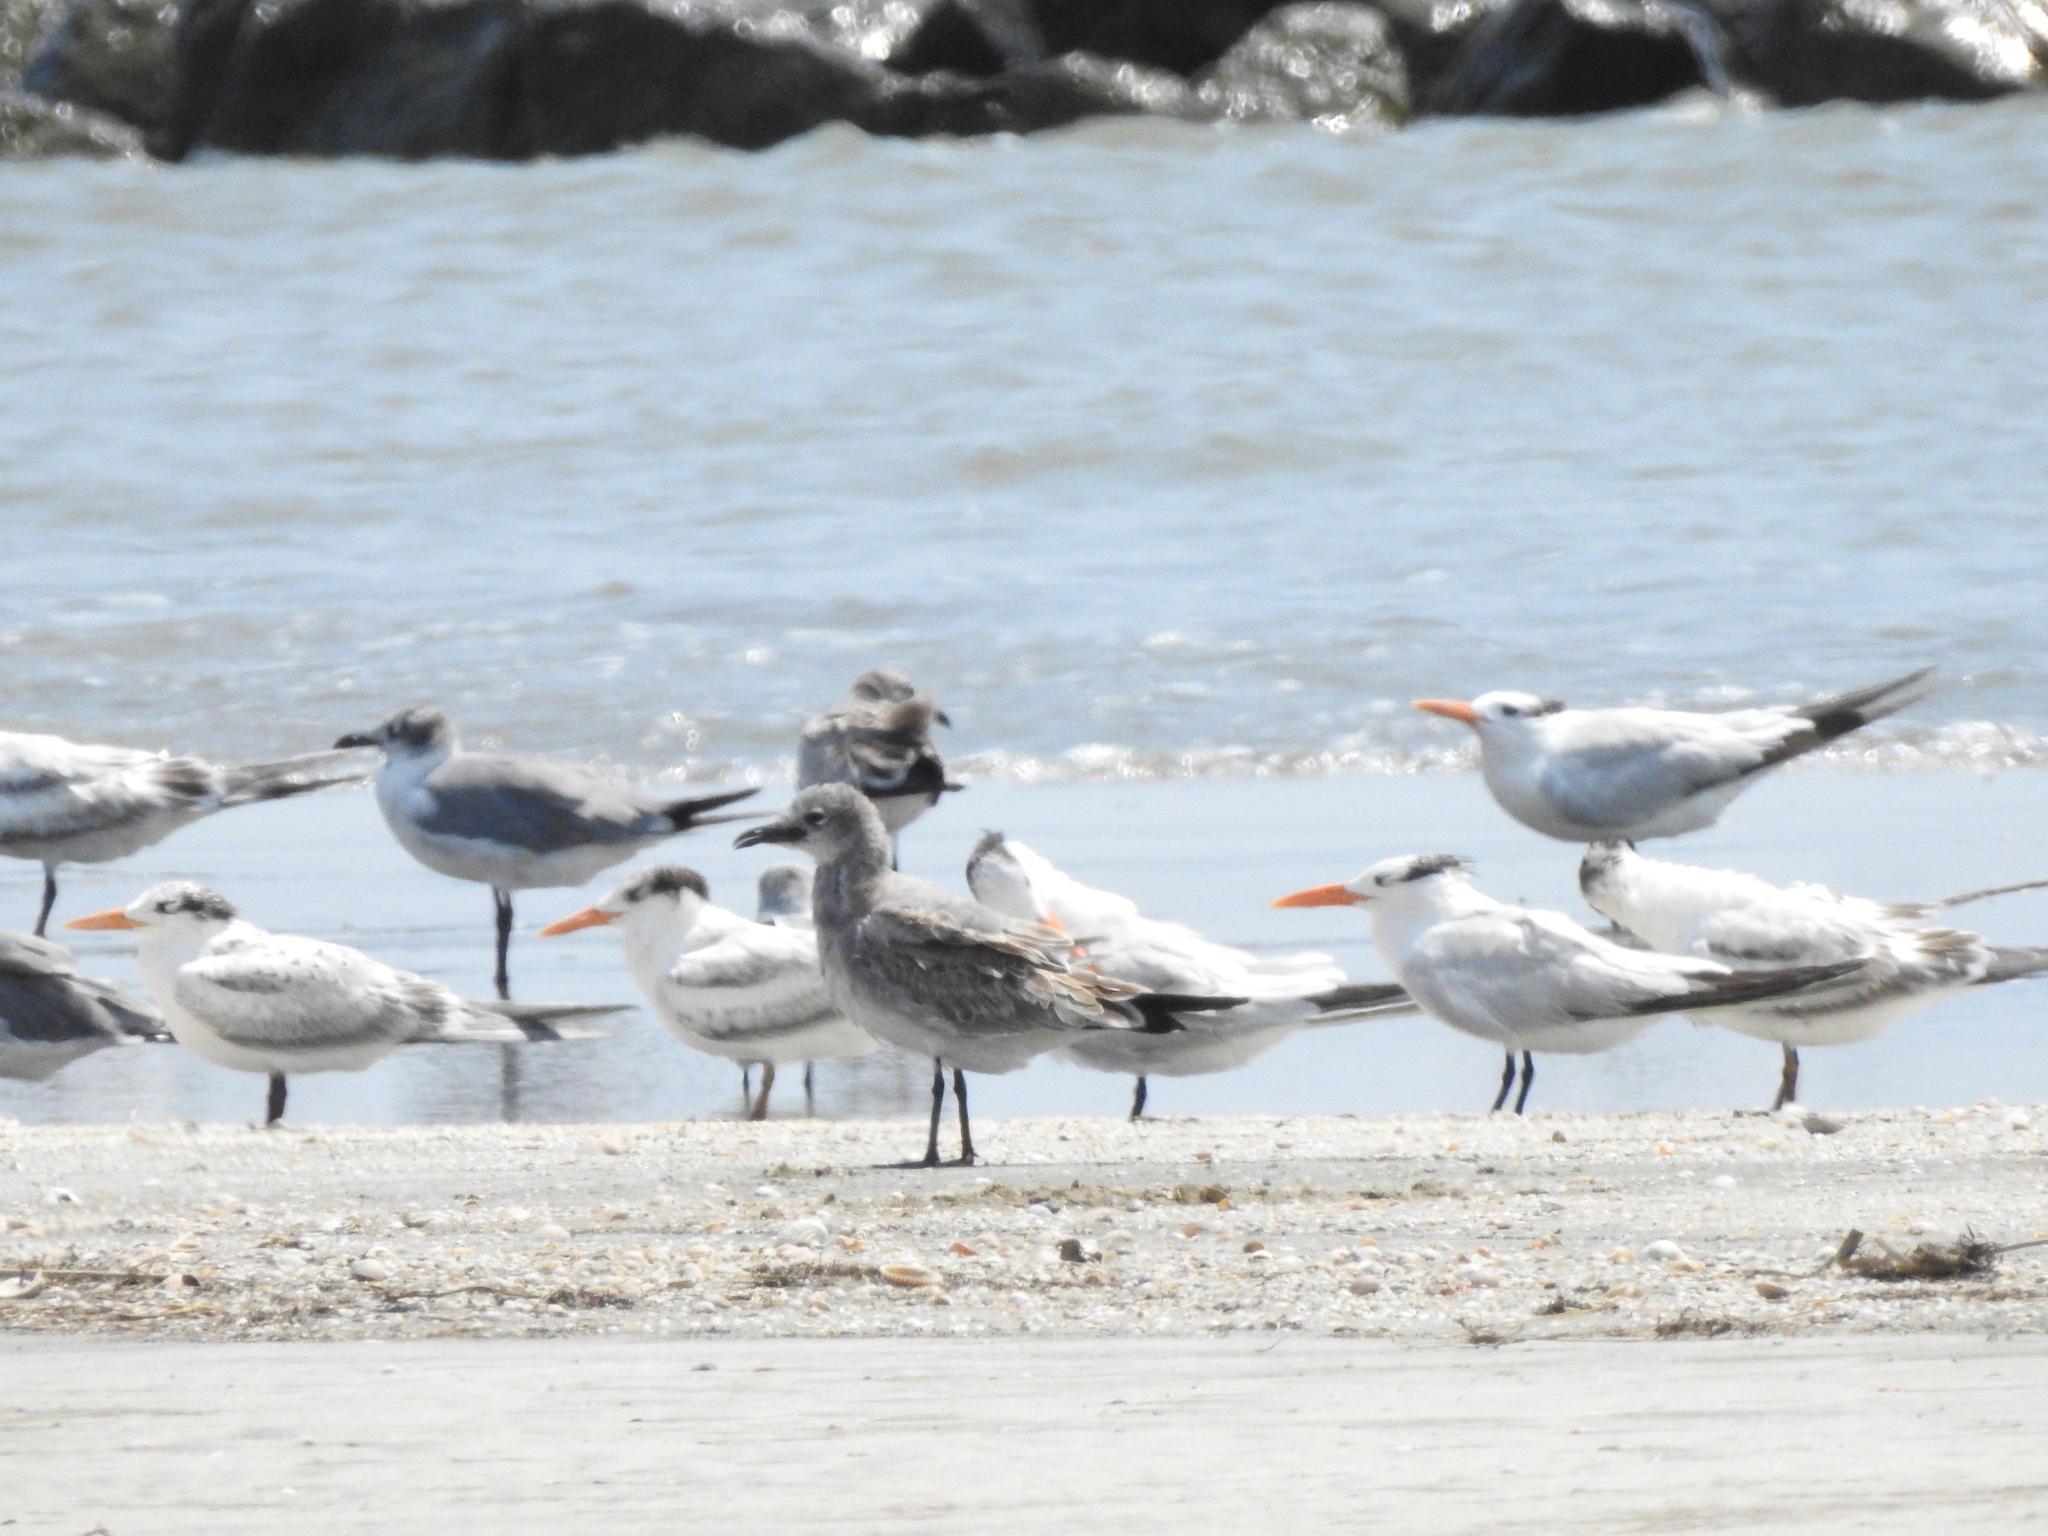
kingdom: Animalia
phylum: Chordata
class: Aves
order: Charadriiformes
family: Laridae
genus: Leucophaeus
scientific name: Leucophaeus atricilla
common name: Laughing gull
